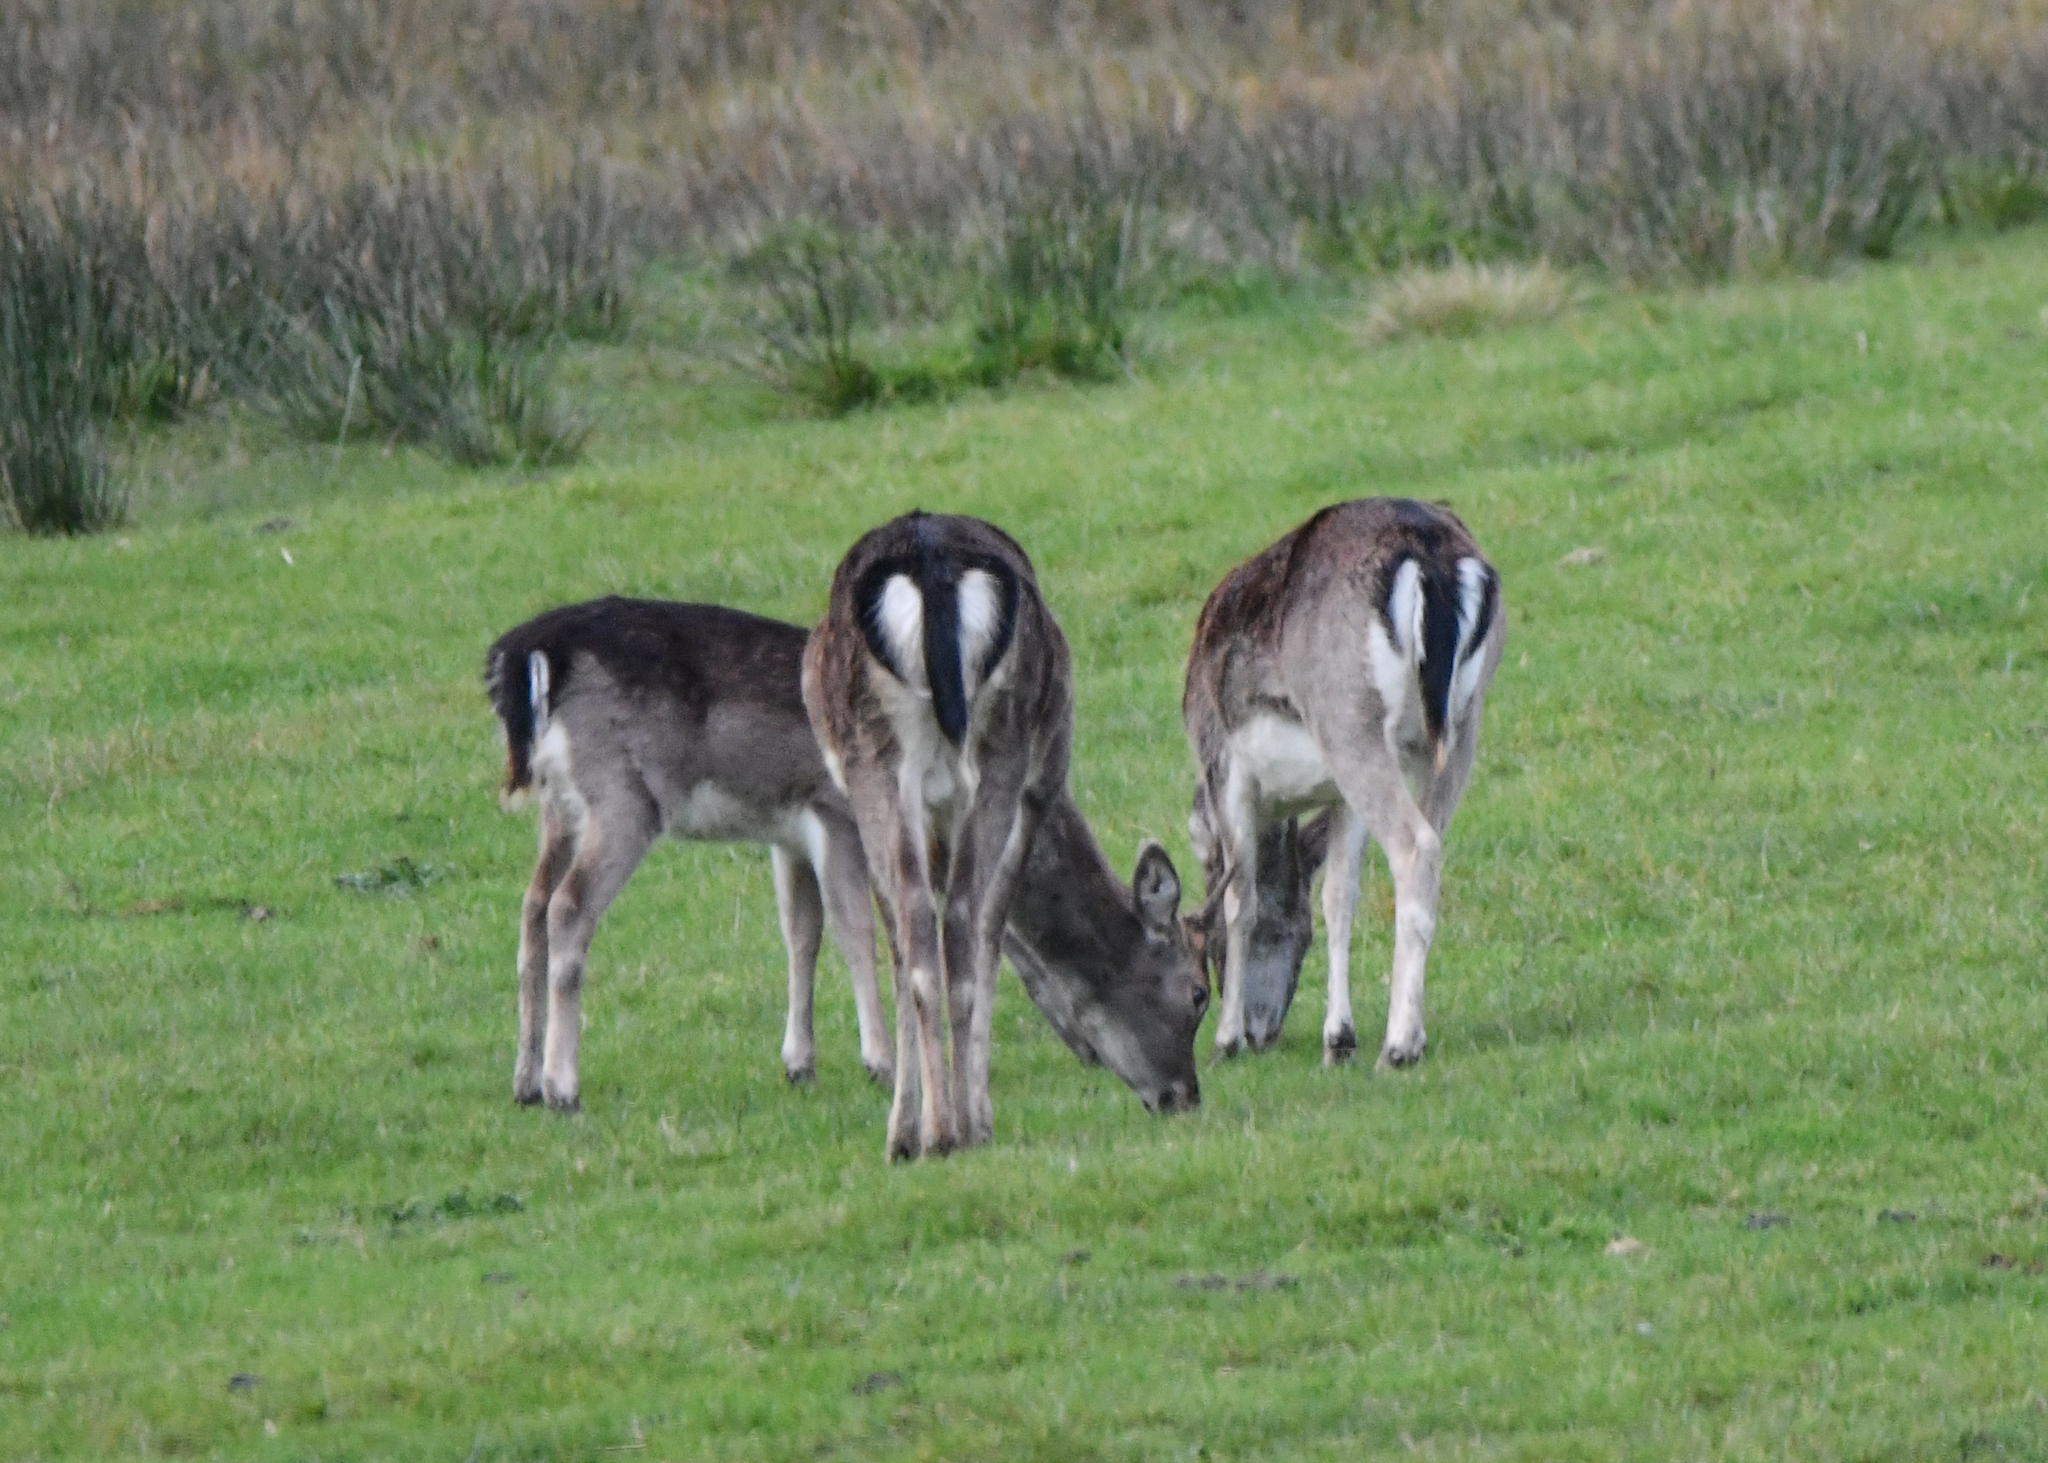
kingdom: Animalia
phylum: Chordata
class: Mammalia
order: Artiodactyla
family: Cervidae
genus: Dama
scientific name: Dama dama
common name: Fallow deer
